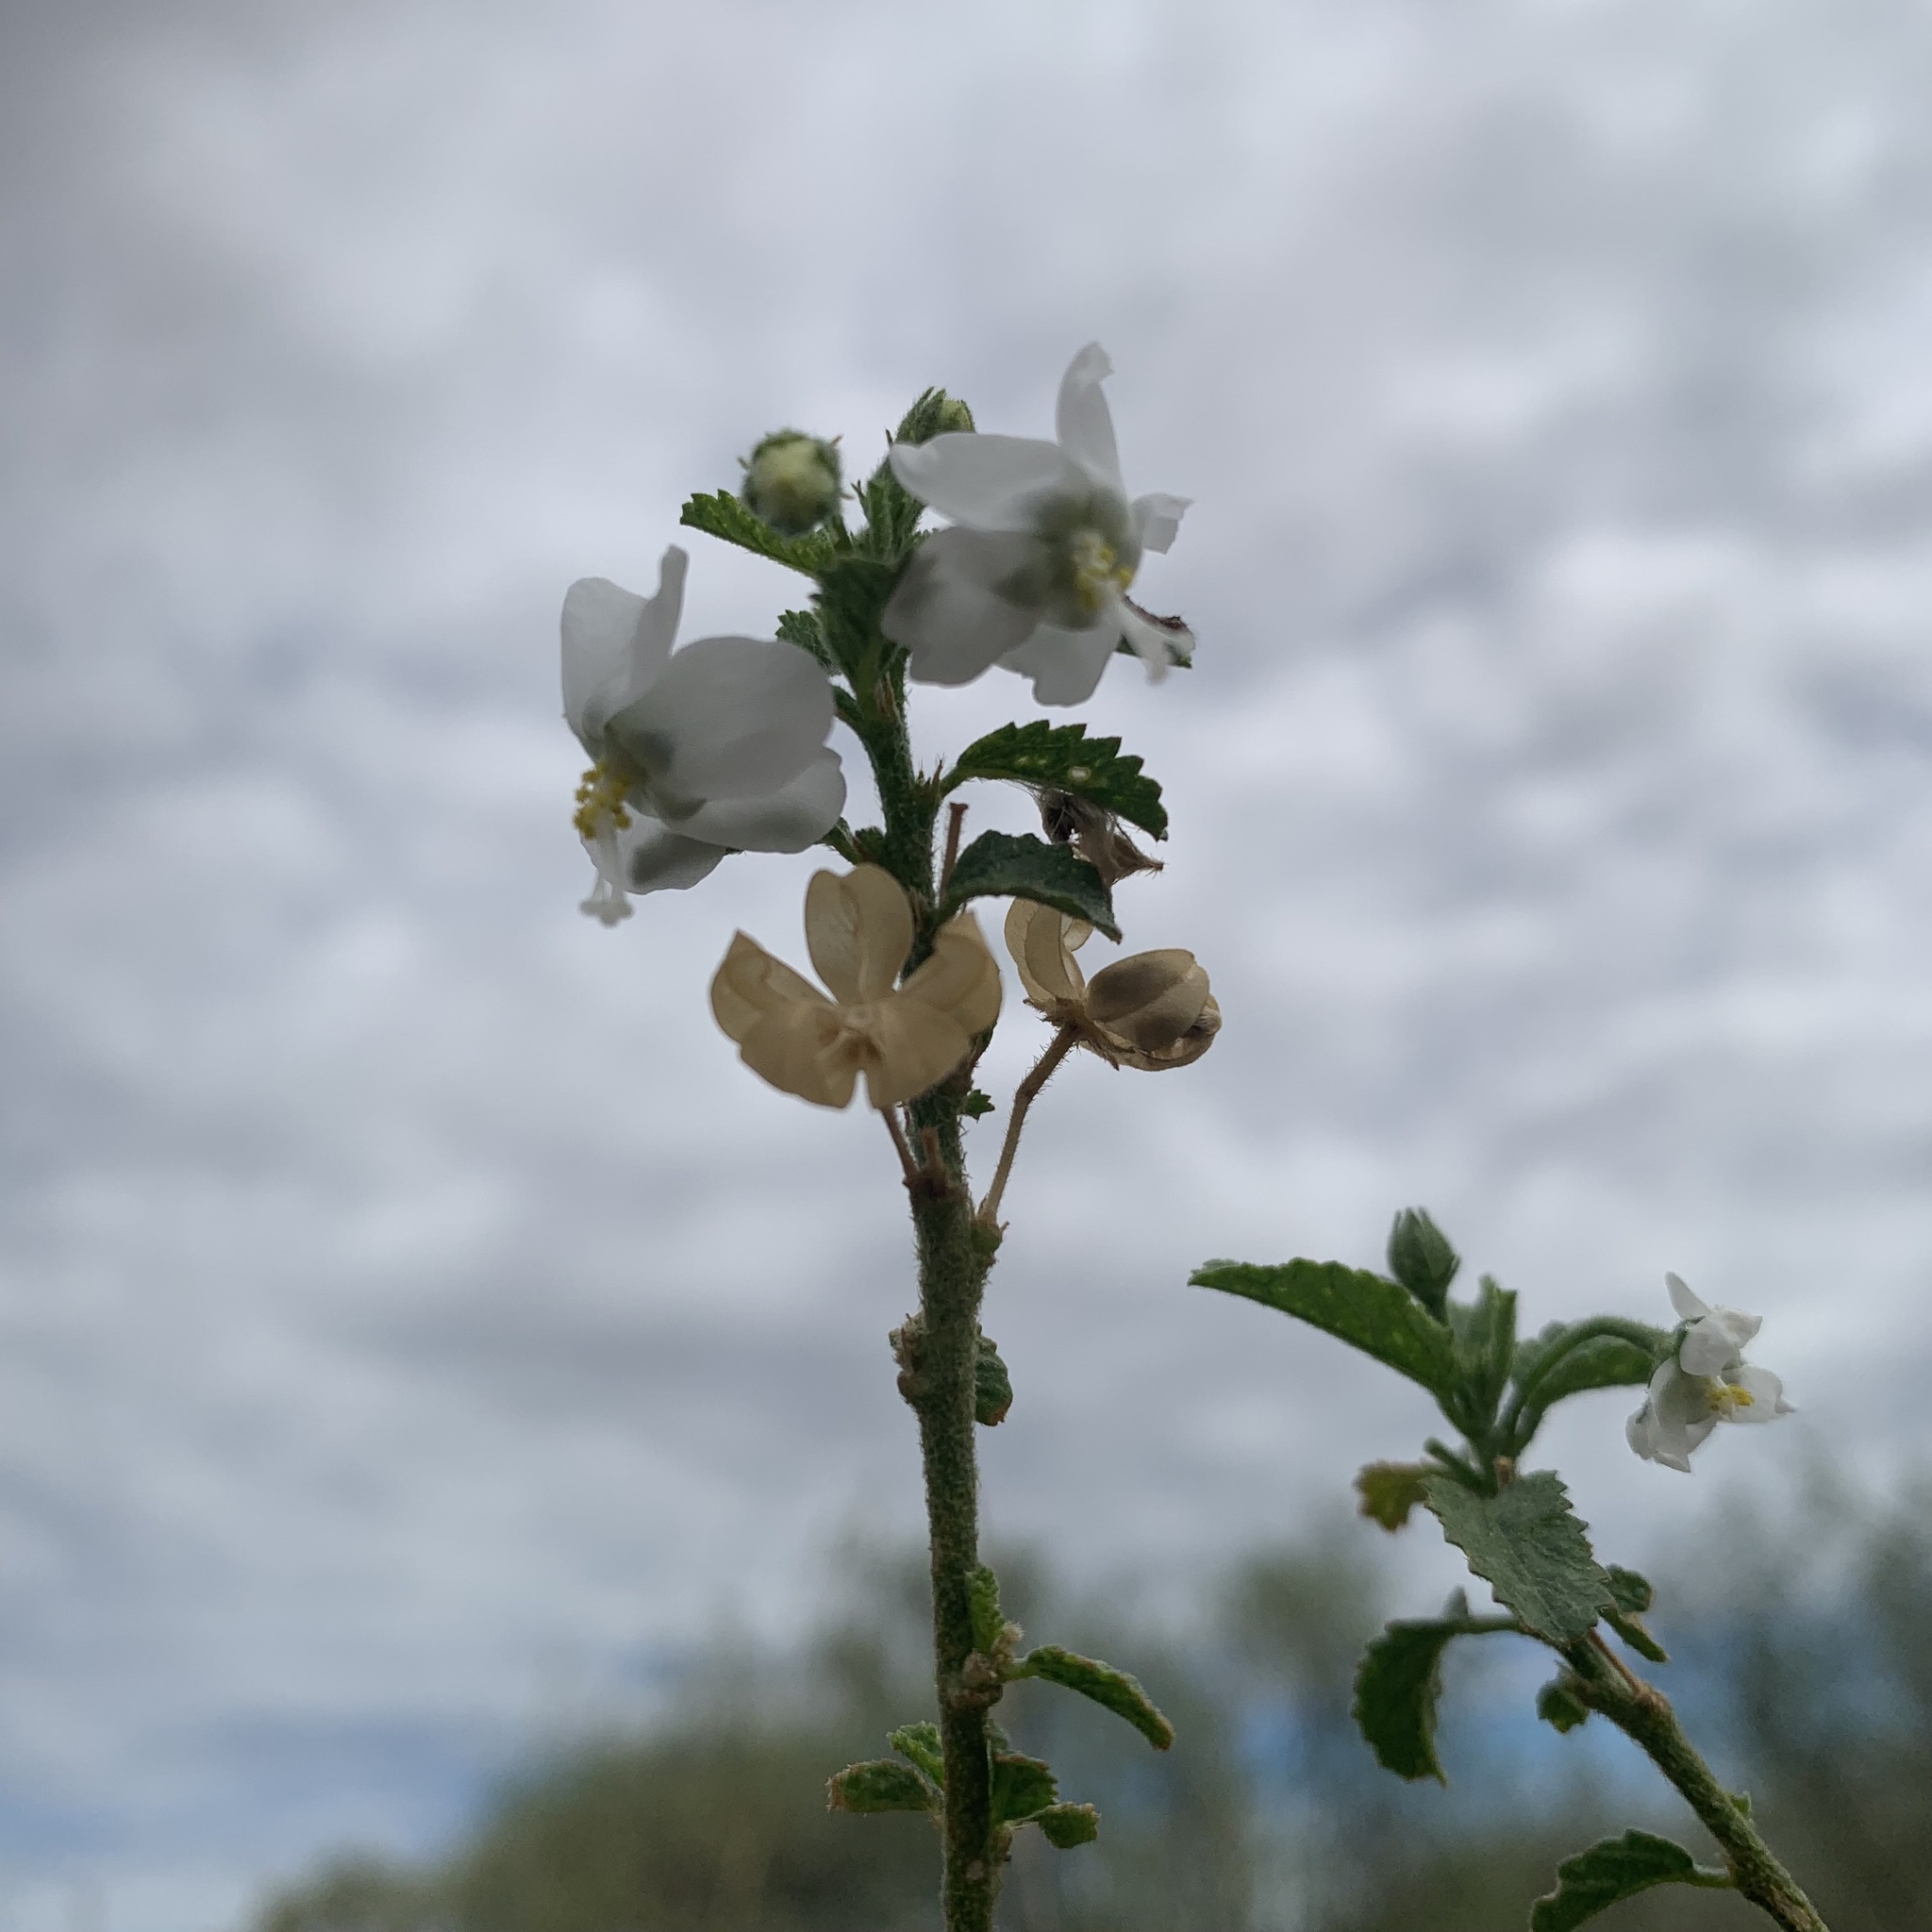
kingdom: Plantae
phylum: Tracheophyta
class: Magnoliopsida
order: Malvales
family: Malvaceae
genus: Hibiscus
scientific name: Hibiscus micranthus
